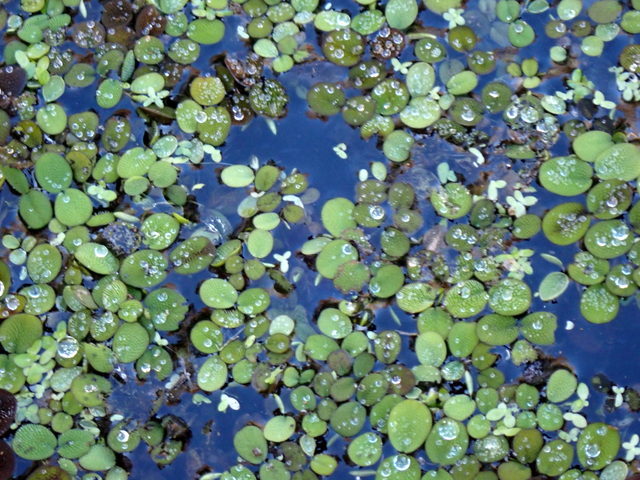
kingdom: Plantae
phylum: Tracheophyta
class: Polypodiopsida
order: Salviniales
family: Salviniaceae
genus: Salvinia
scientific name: Salvinia minima
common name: Water spangles
